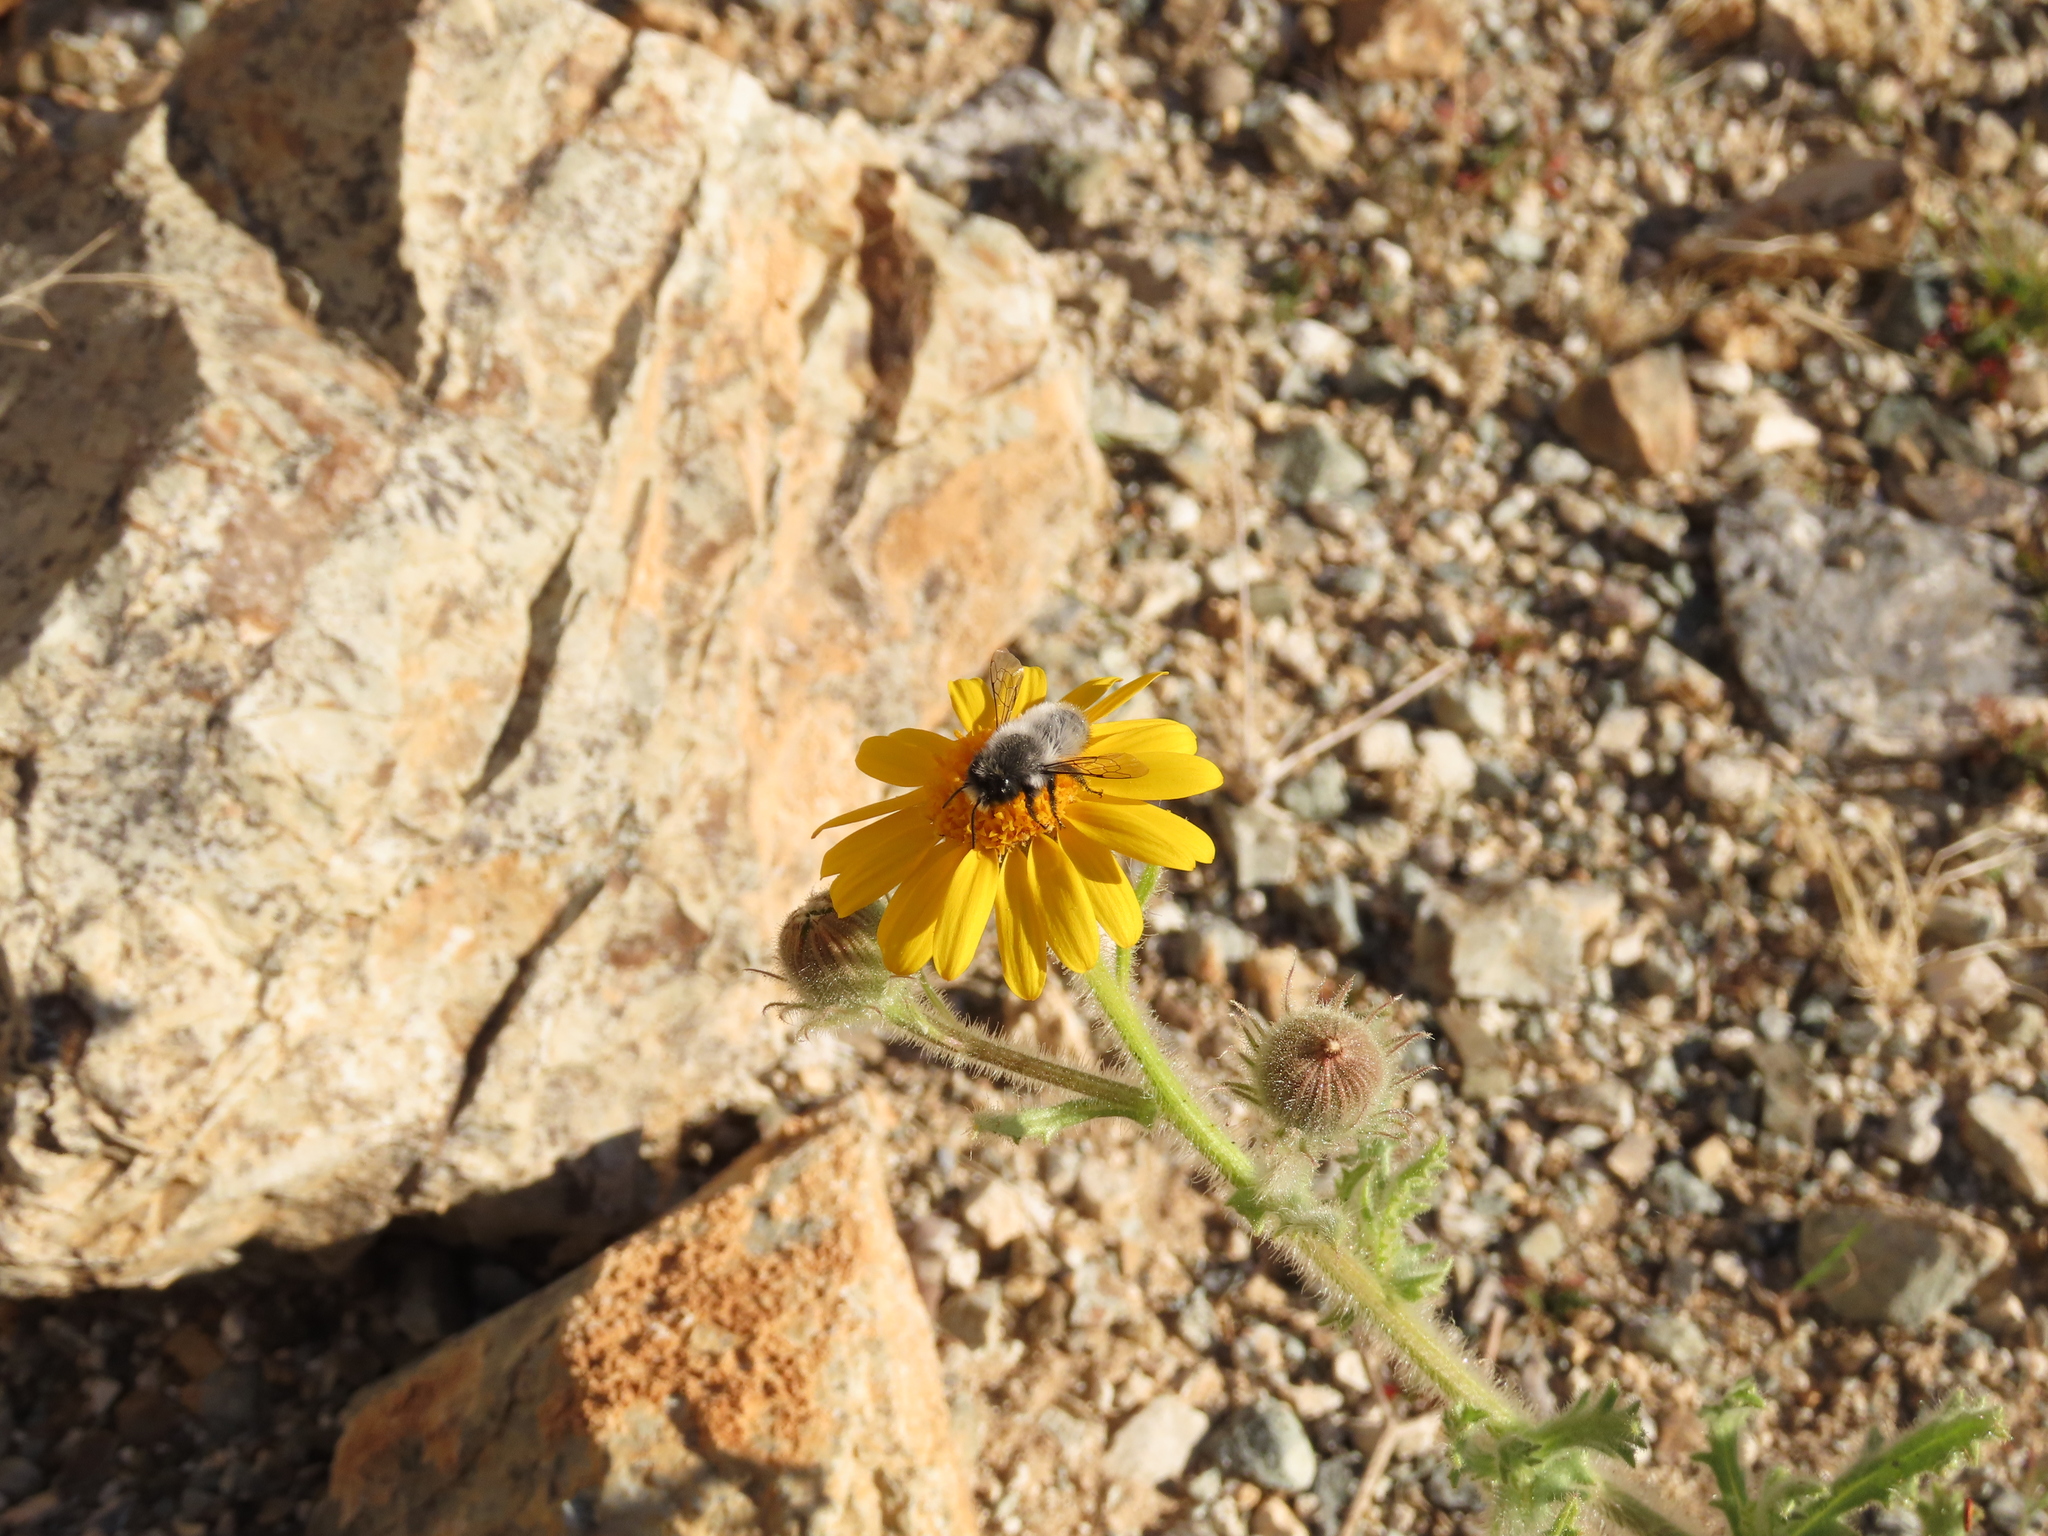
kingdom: Animalia
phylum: Arthropoda
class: Insecta
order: Hymenoptera
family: Megachilidae
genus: Megachile
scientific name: Megachile saulcyi
